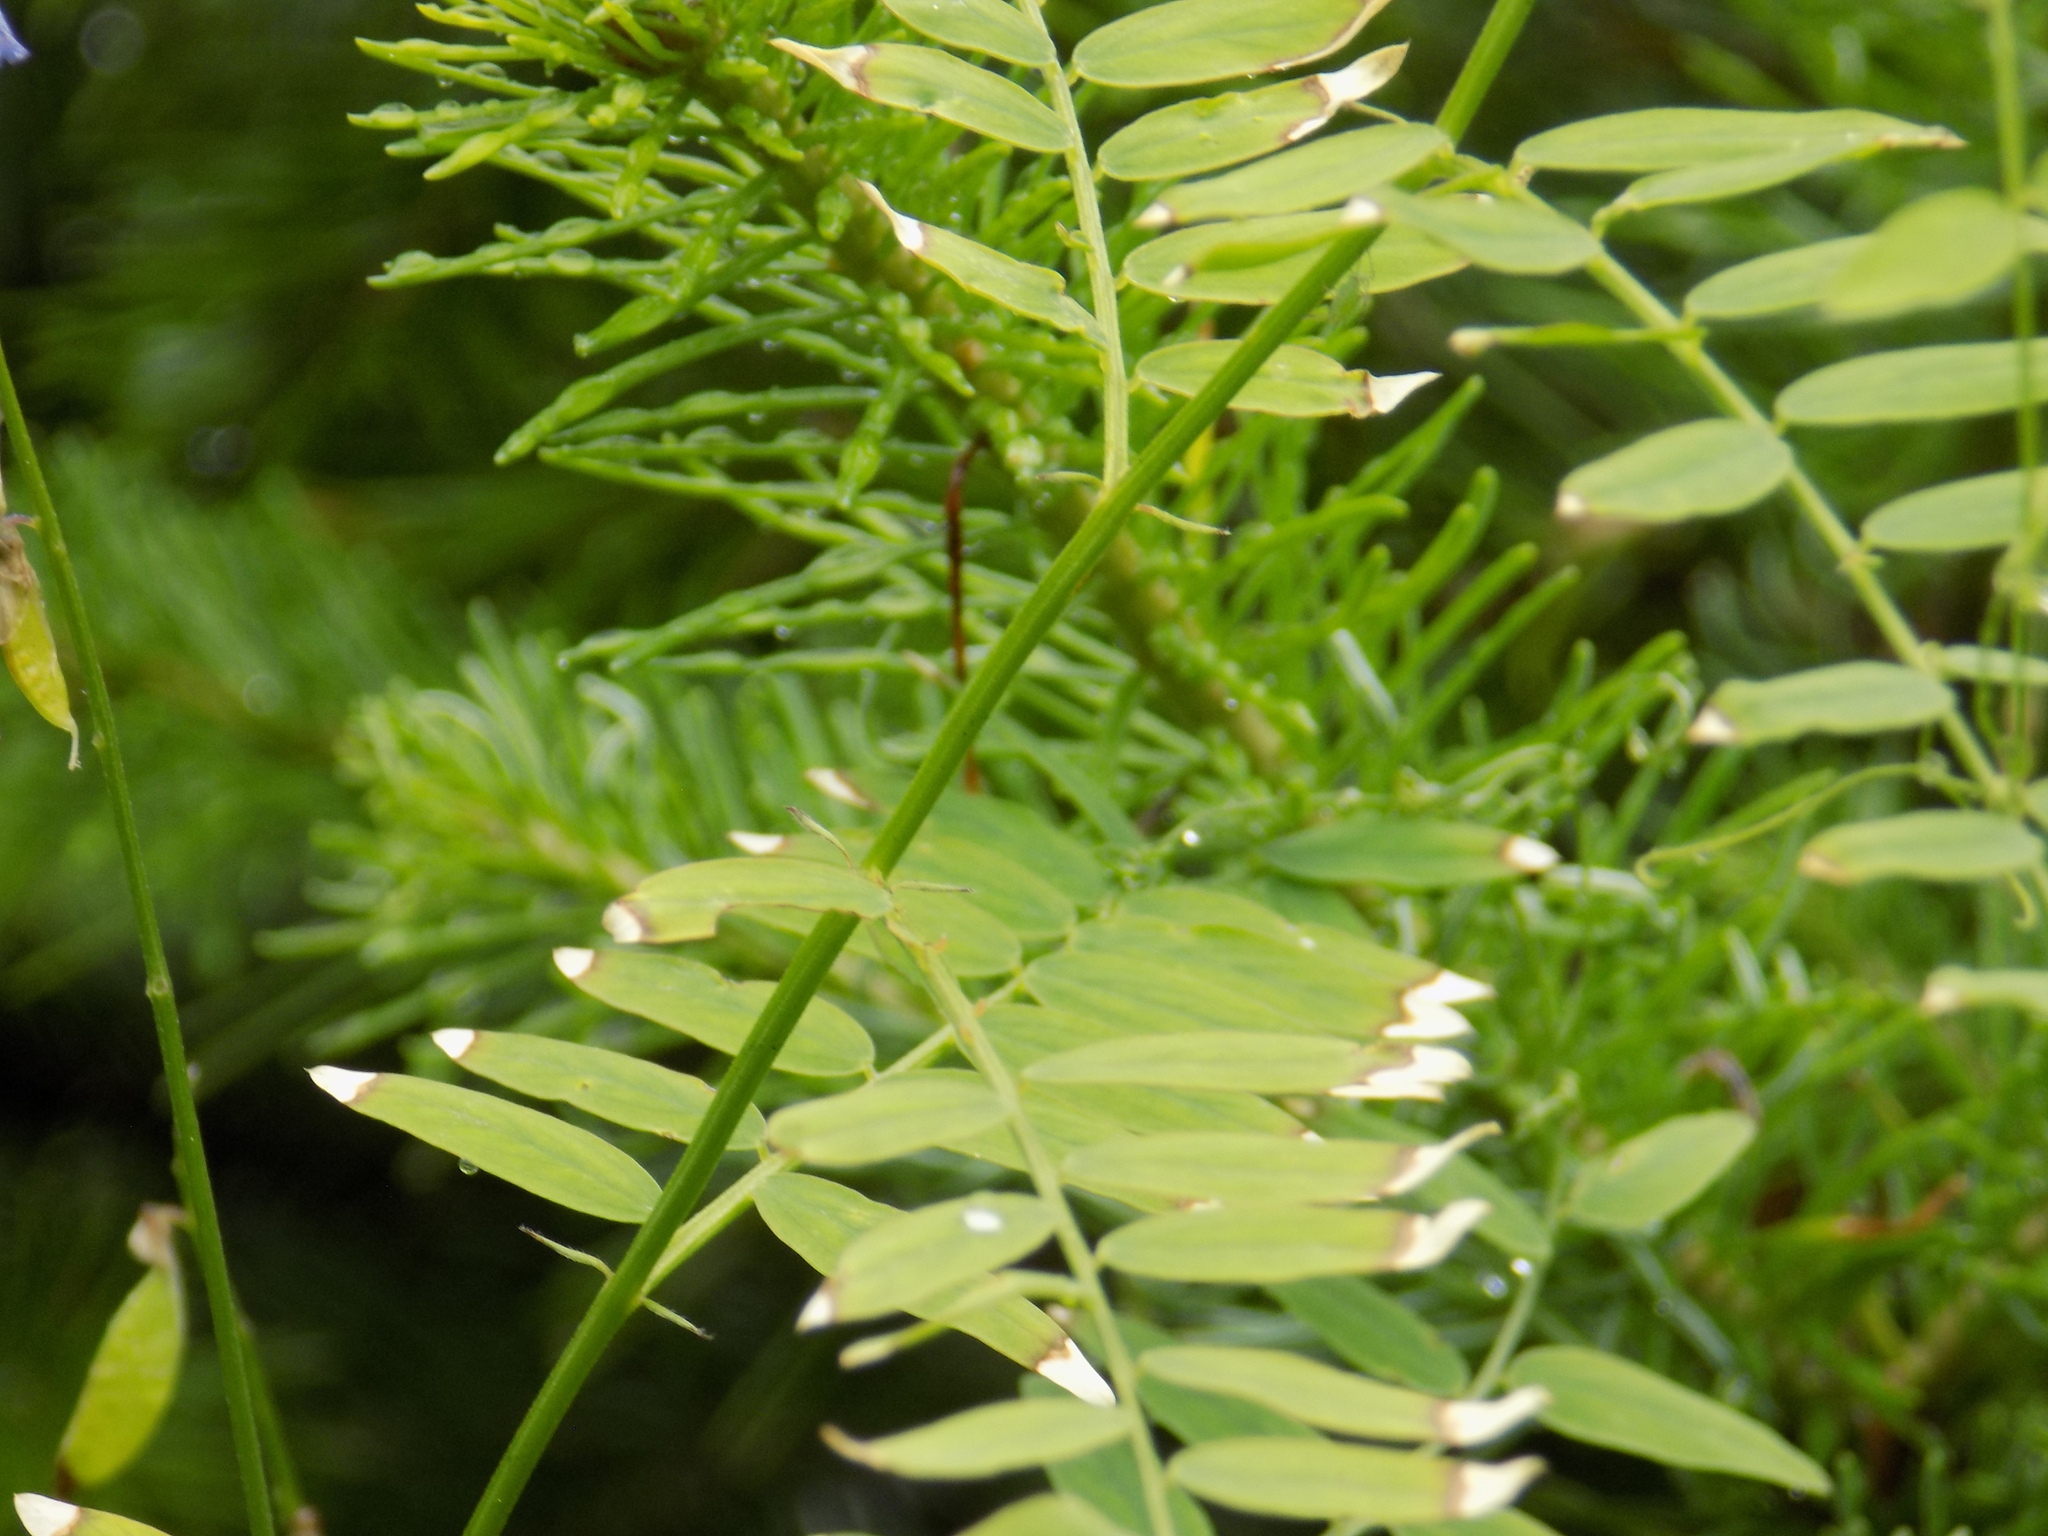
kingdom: Plantae
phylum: Tracheophyta
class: Magnoliopsida
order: Fabales
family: Fabaceae
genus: Vicia
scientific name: Vicia cracca
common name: Bird vetch
